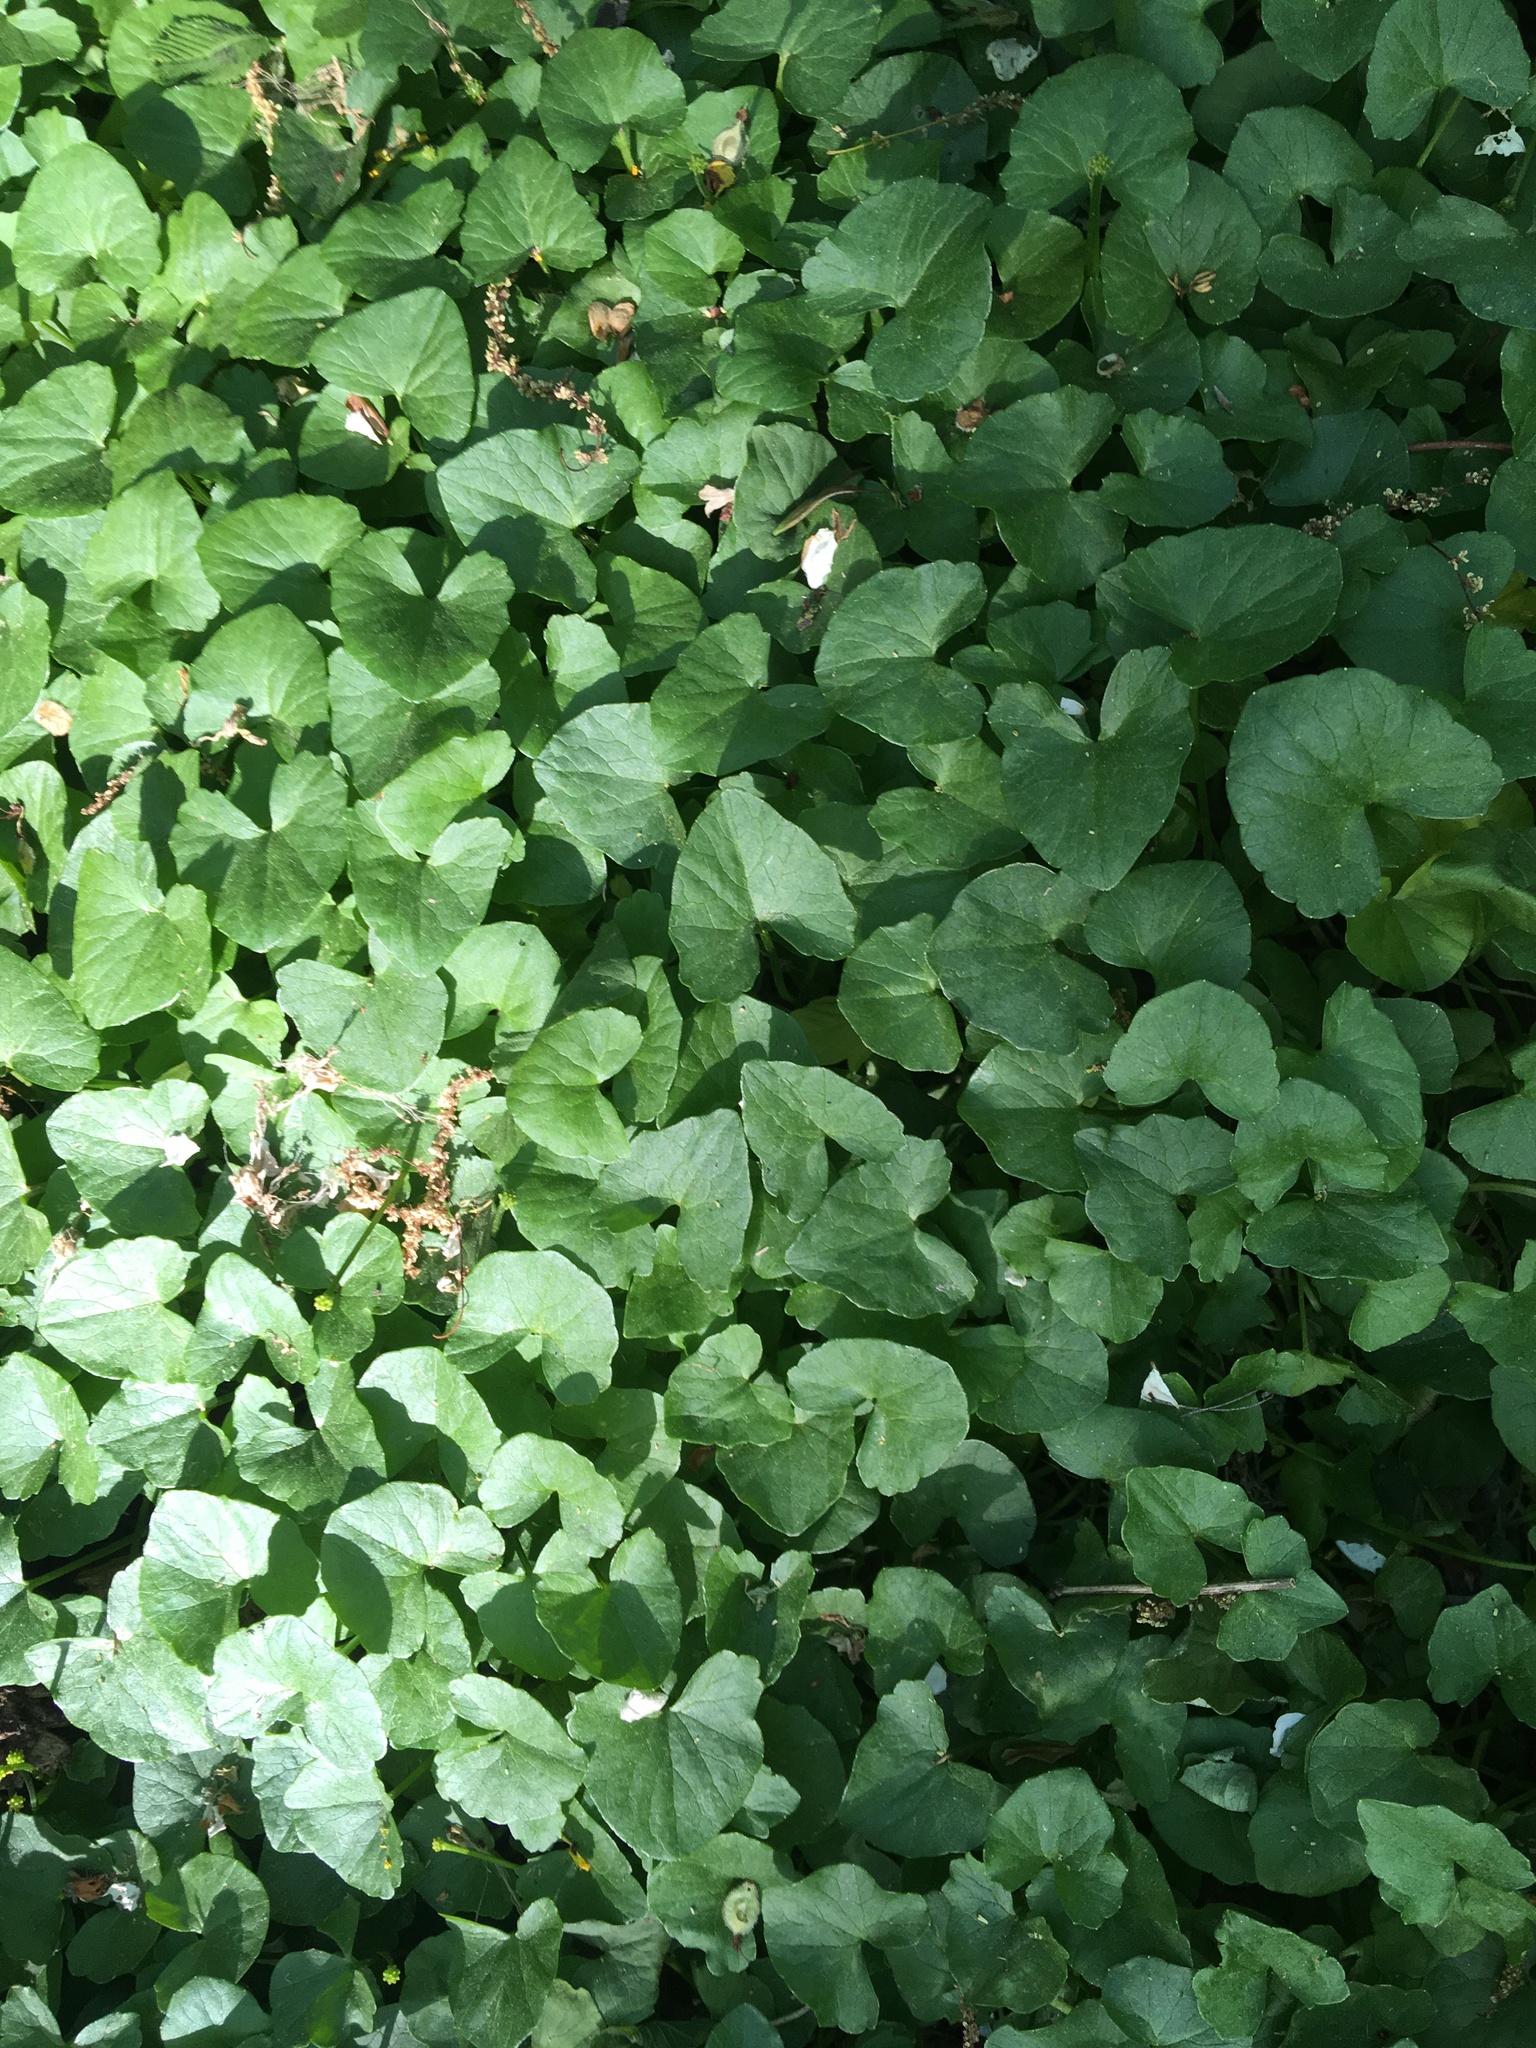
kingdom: Plantae
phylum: Tracheophyta
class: Magnoliopsida
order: Ranunculales
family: Ranunculaceae
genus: Ficaria
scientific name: Ficaria verna
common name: Lesser celandine
